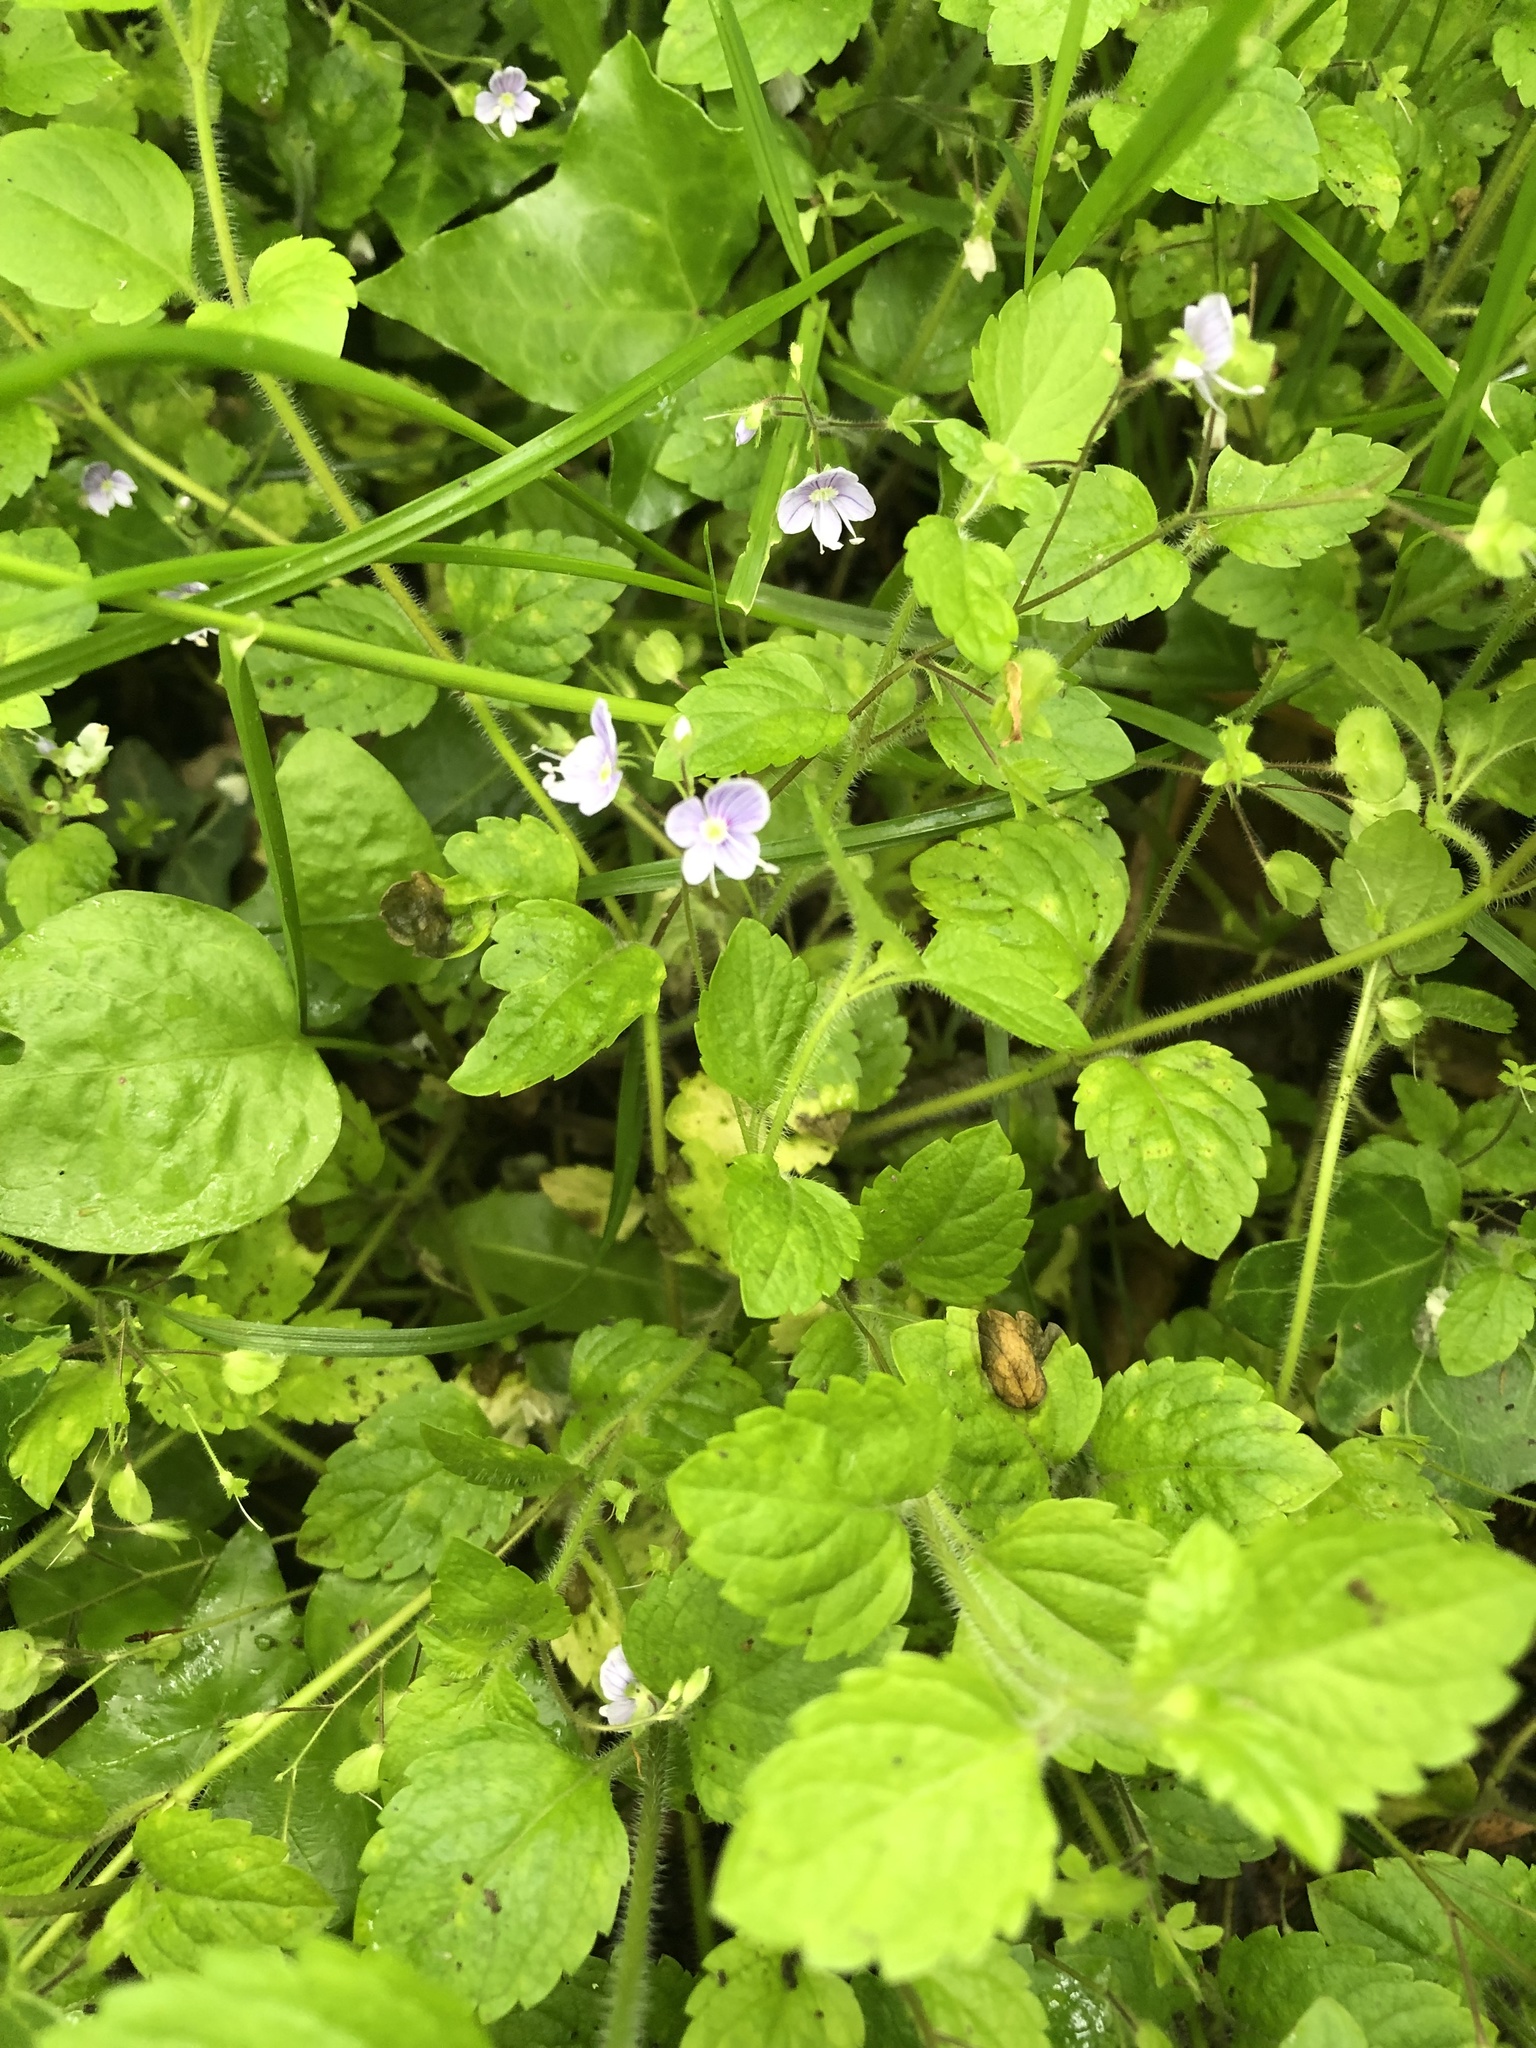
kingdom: Plantae
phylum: Tracheophyta
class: Magnoliopsida
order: Lamiales
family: Plantaginaceae
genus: Veronica
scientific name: Veronica montana
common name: Wood speedwell
